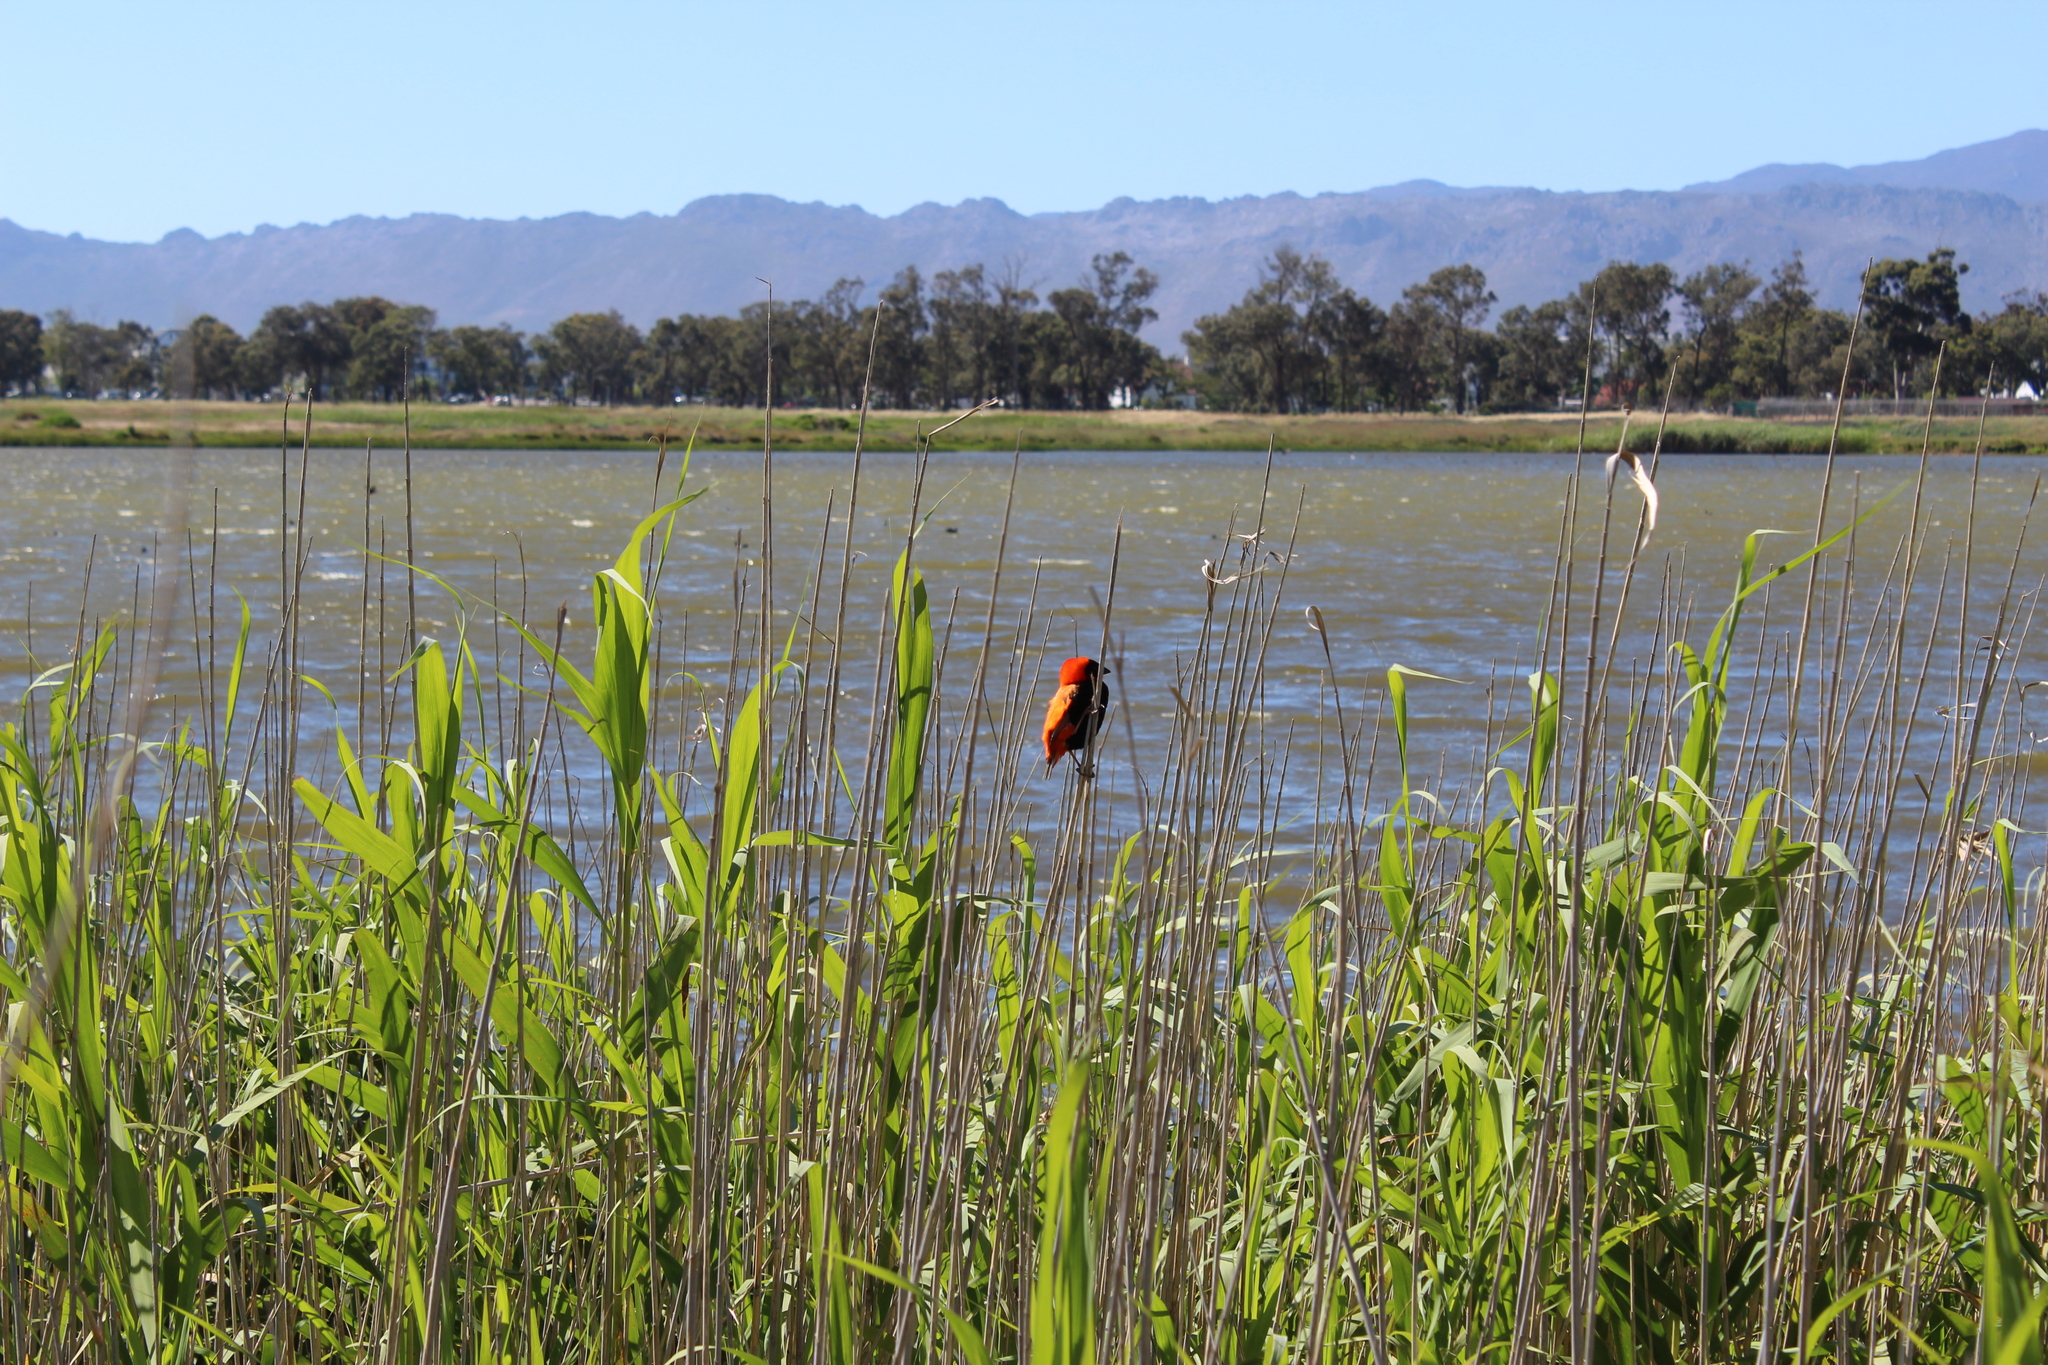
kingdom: Animalia
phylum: Chordata
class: Aves
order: Passeriformes
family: Ploceidae
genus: Euplectes
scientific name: Euplectes orix
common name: Southern red bishop
